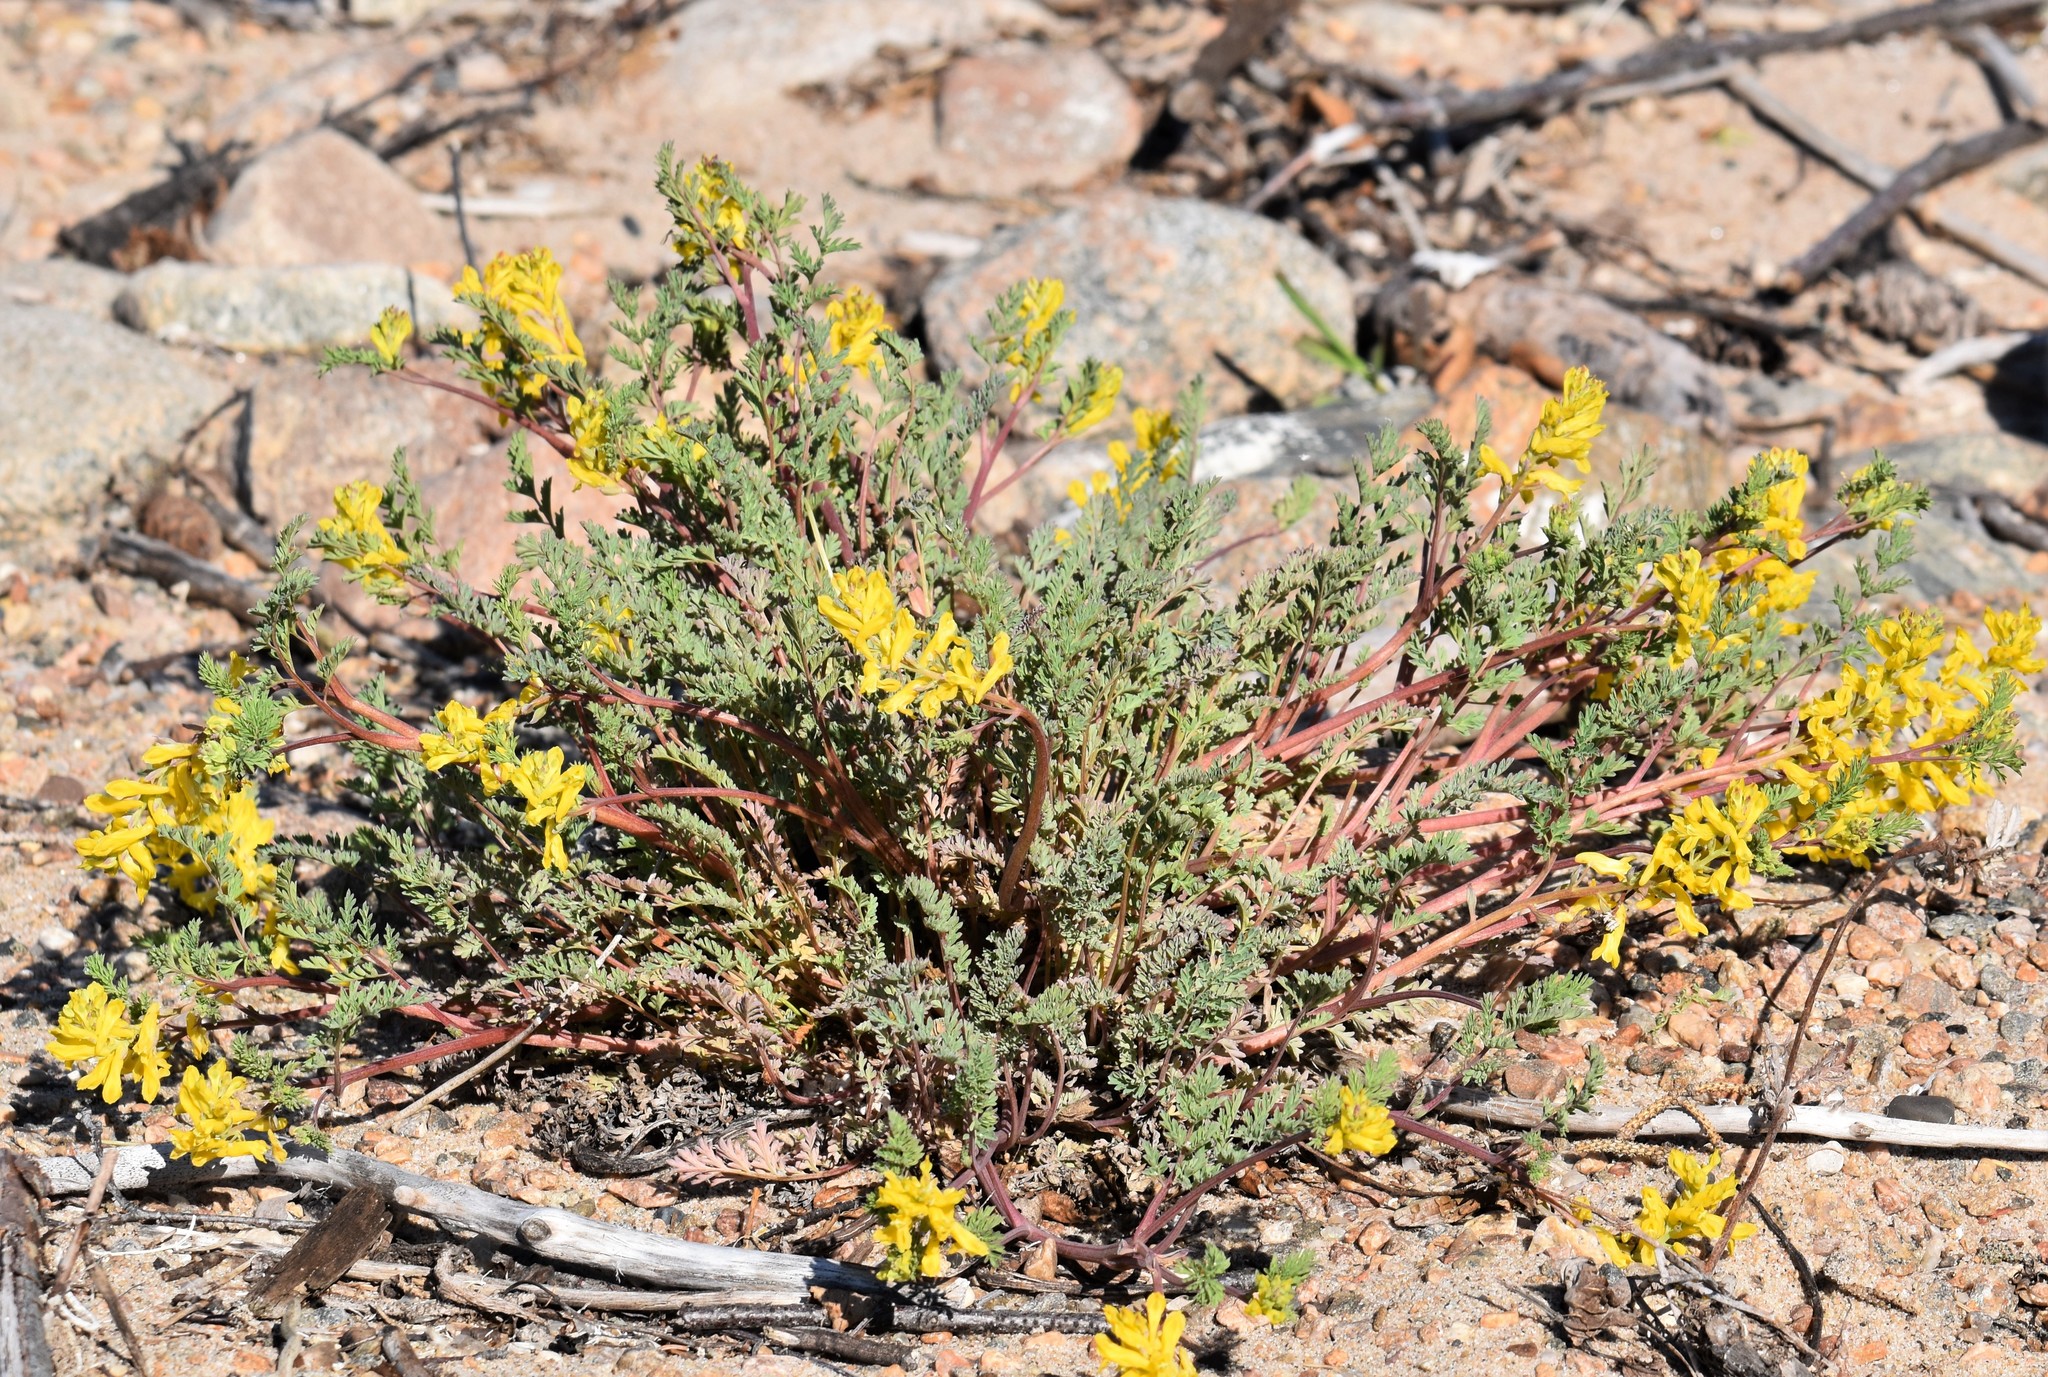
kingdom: Plantae
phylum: Tracheophyta
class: Magnoliopsida
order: Ranunculales
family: Papaveraceae
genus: Corydalis
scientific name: Corydalis aurea
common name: Golden corydalis
